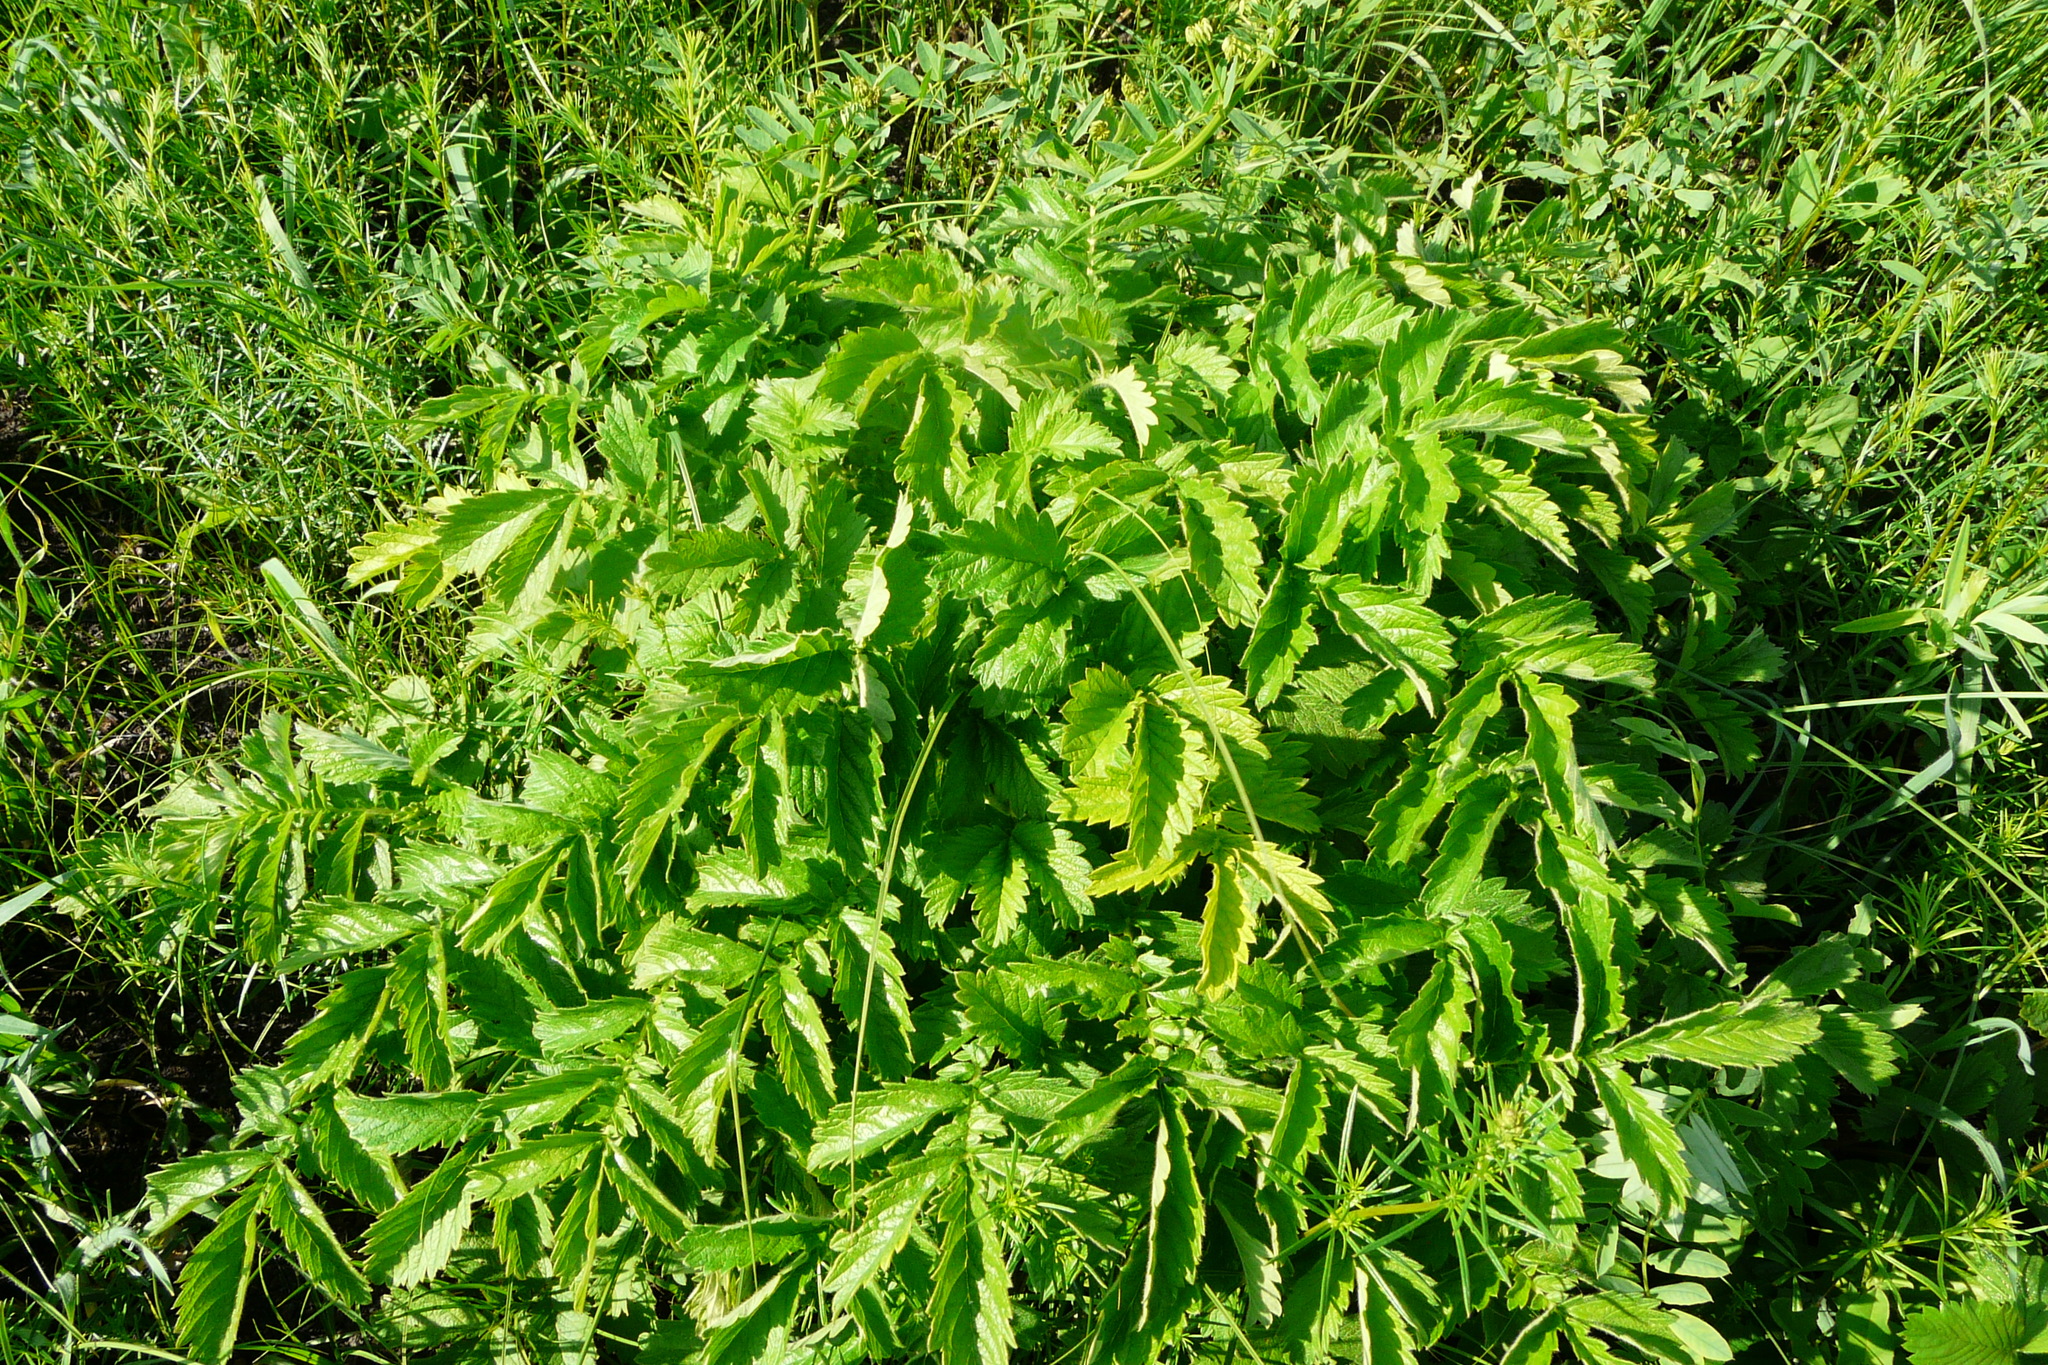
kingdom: Plantae
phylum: Tracheophyta
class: Magnoliopsida
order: Rosales
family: Rosaceae
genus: Agrimonia
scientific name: Agrimonia eupatoria
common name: Agrimony
